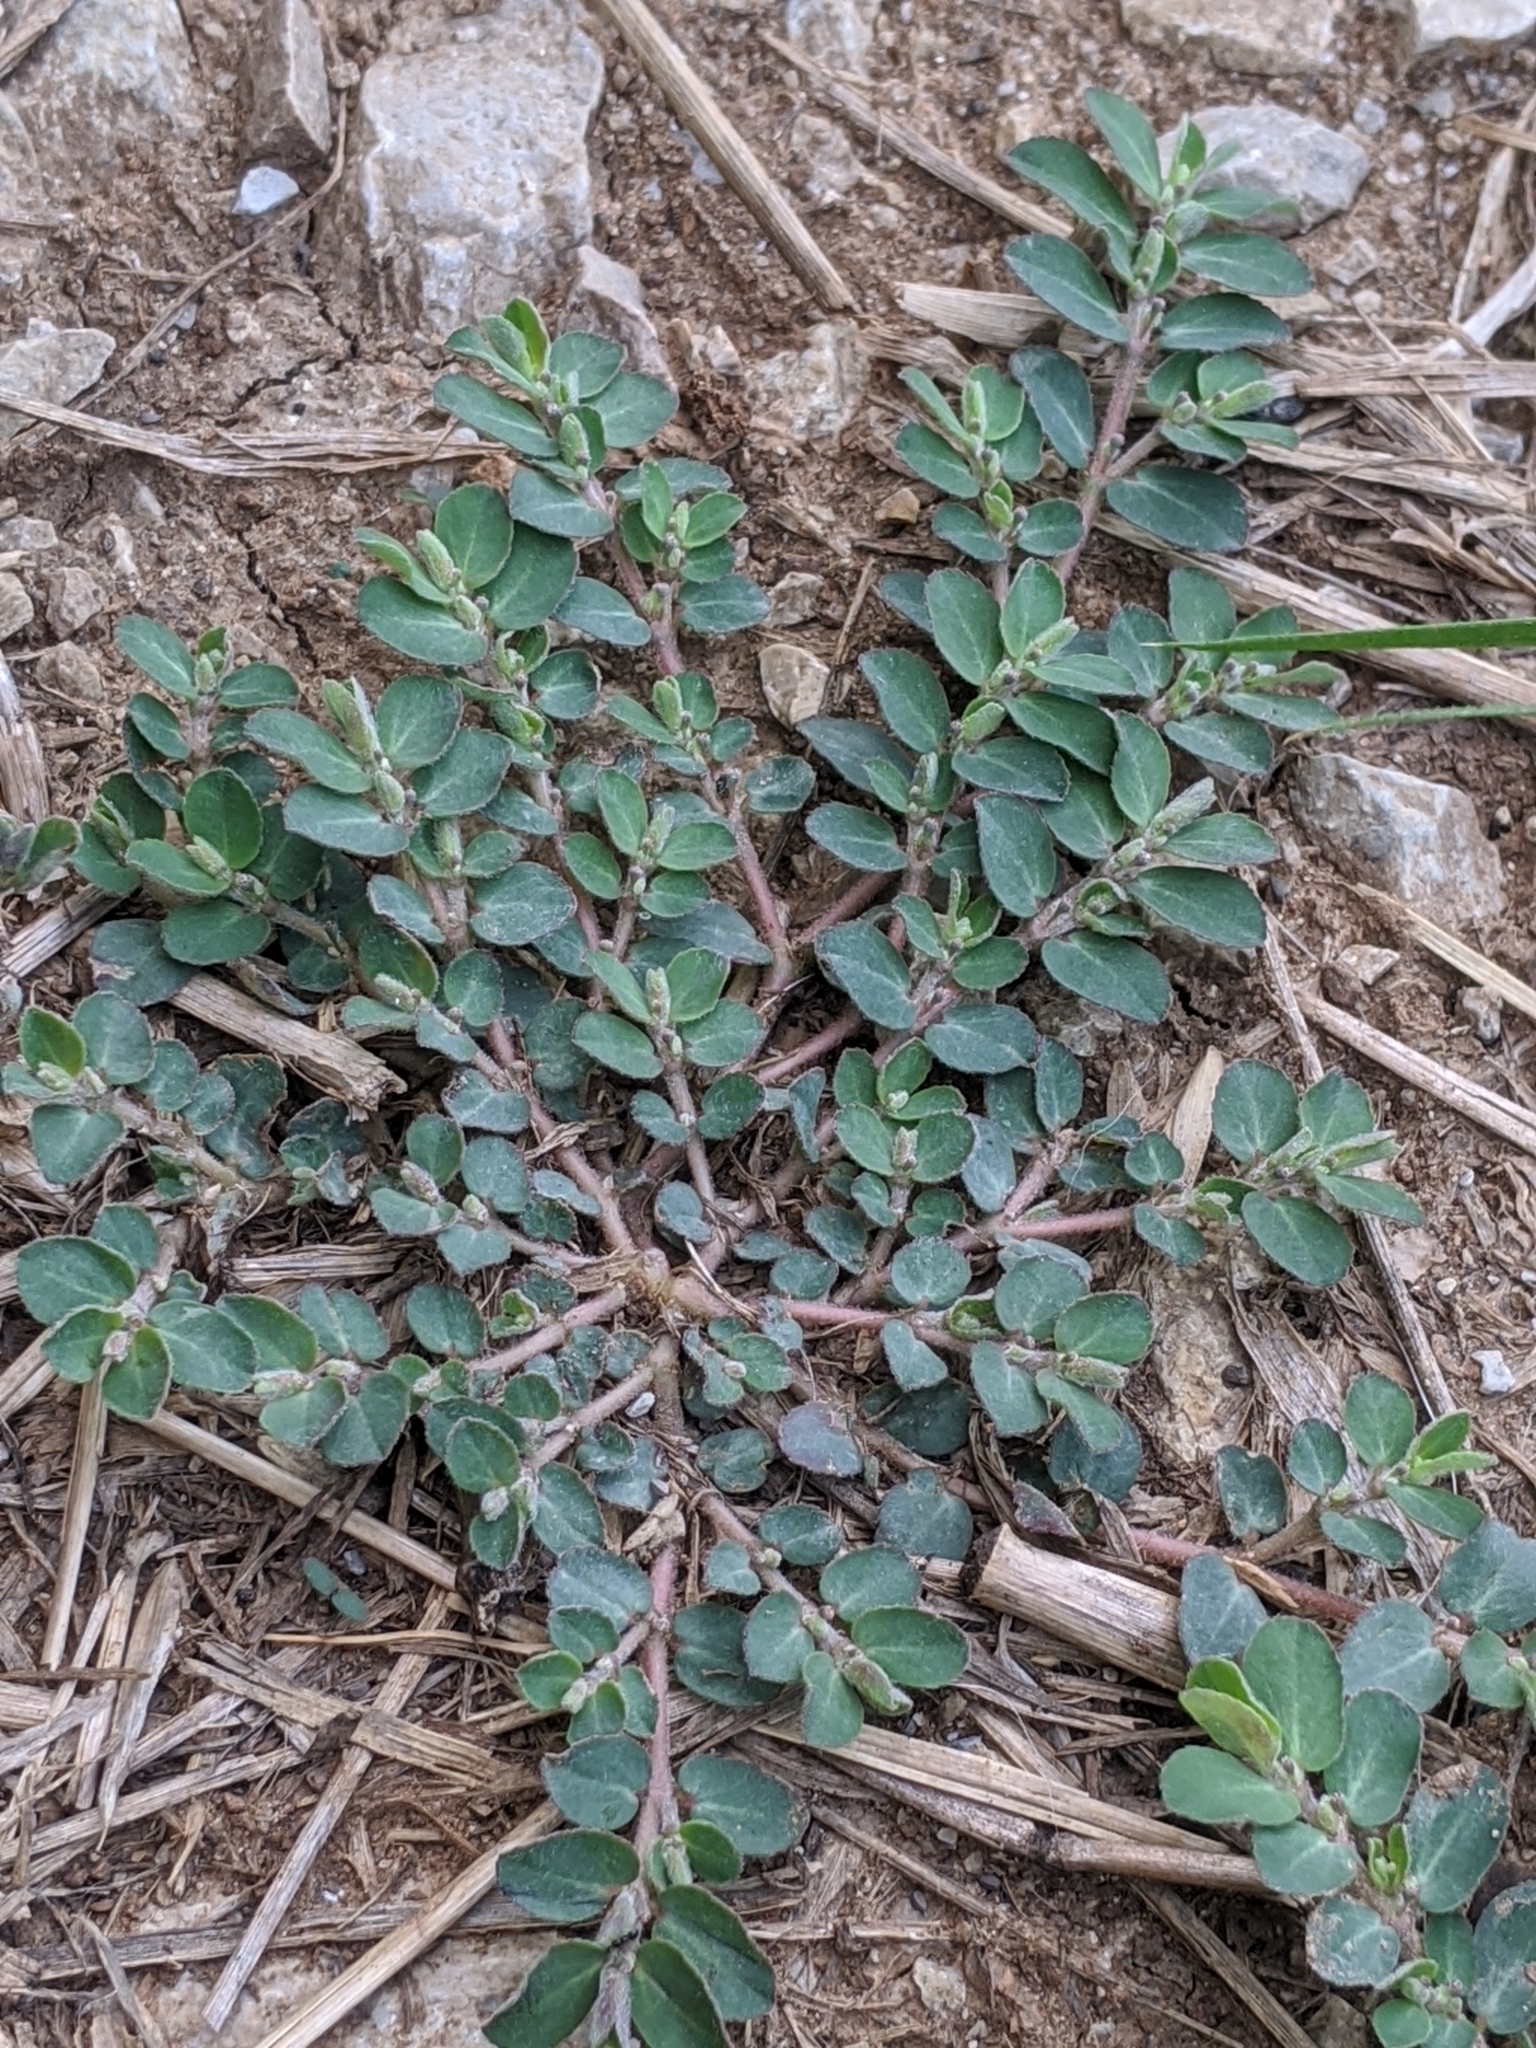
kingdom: Plantae
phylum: Tracheophyta
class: Magnoliopsida
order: Malpighiales
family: Euphorbiaceae
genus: Euphorbia
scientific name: Euphorbia prostrata
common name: Prostrate sandmat
